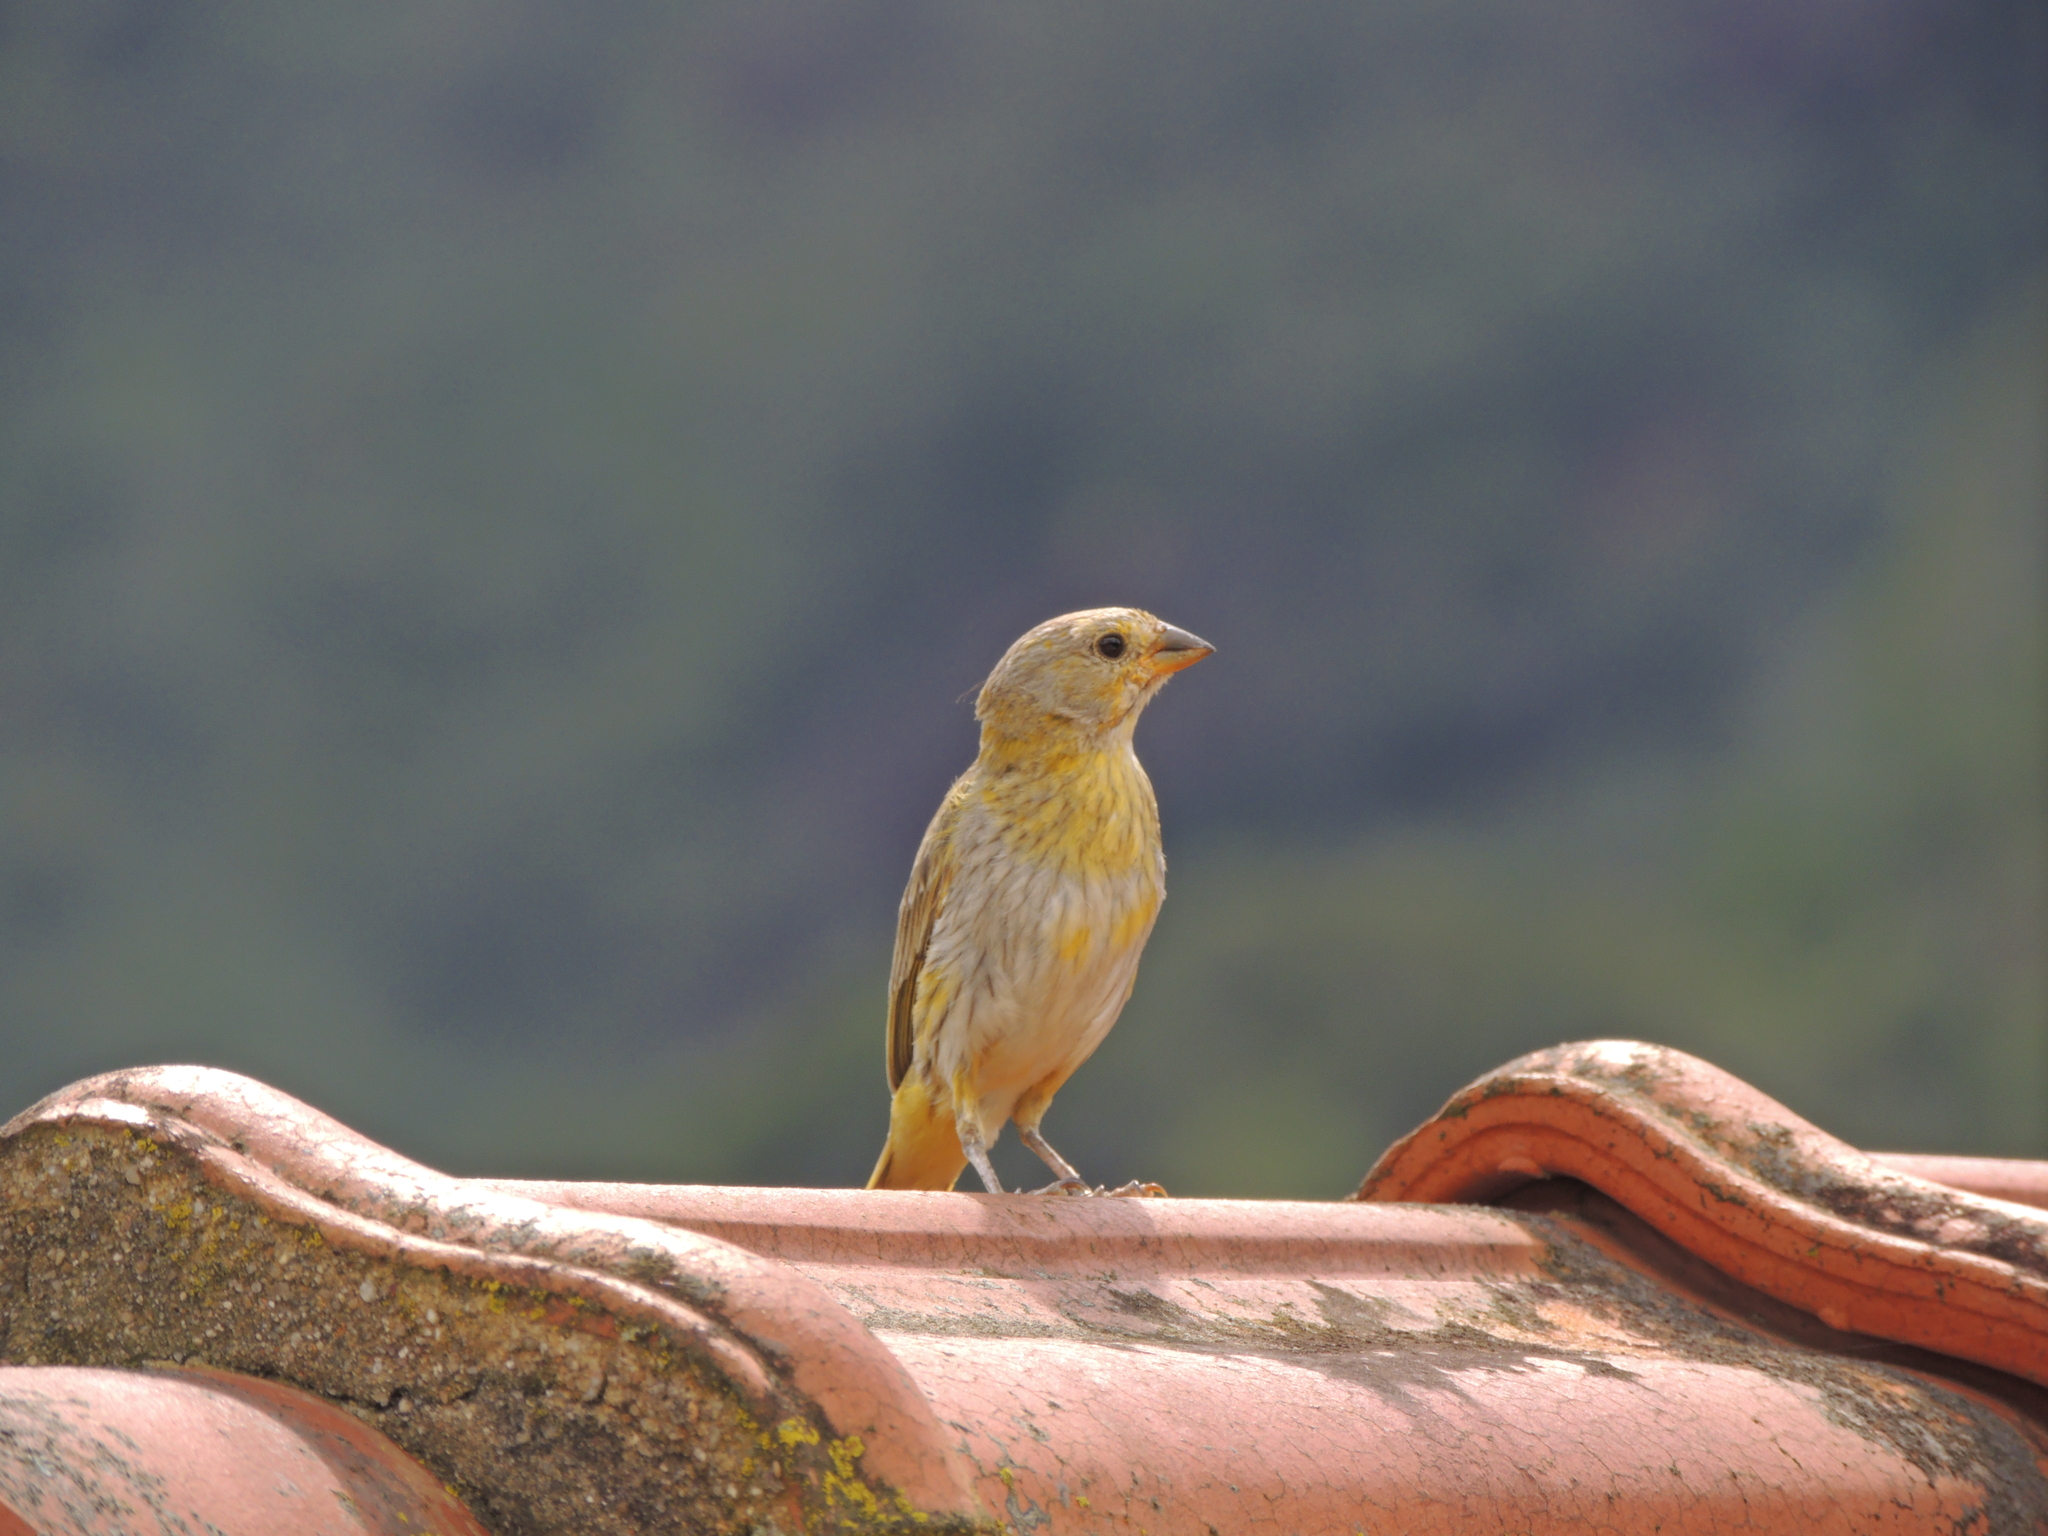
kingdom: Animalia
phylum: Chordata
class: Aves
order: Passeriformes
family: Thraupidae
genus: Sicalis
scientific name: Sicalis flaveola
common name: Saffron finch
